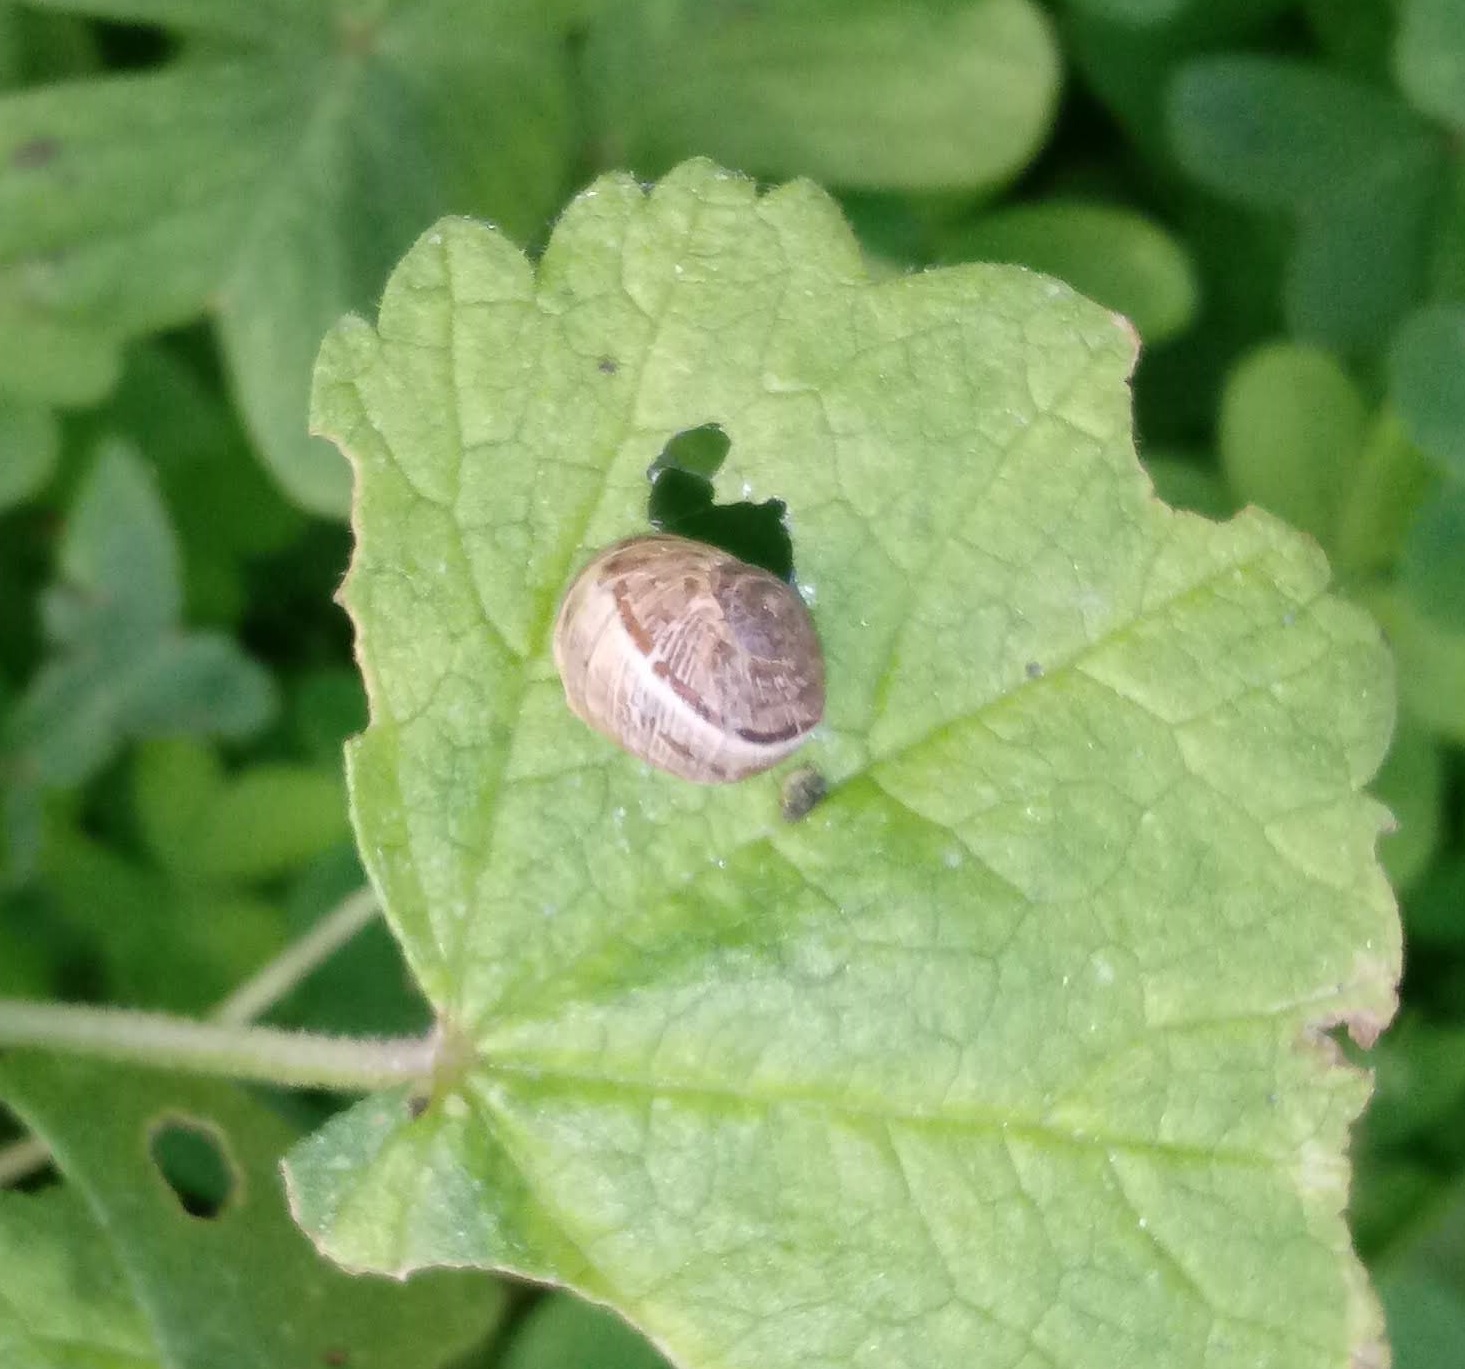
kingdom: Animalia
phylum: Mollusca
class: Gastropoda
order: Stylommatophora
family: Helicidae
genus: Cornu
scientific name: Cornu aspersum
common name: Brown garden snail
